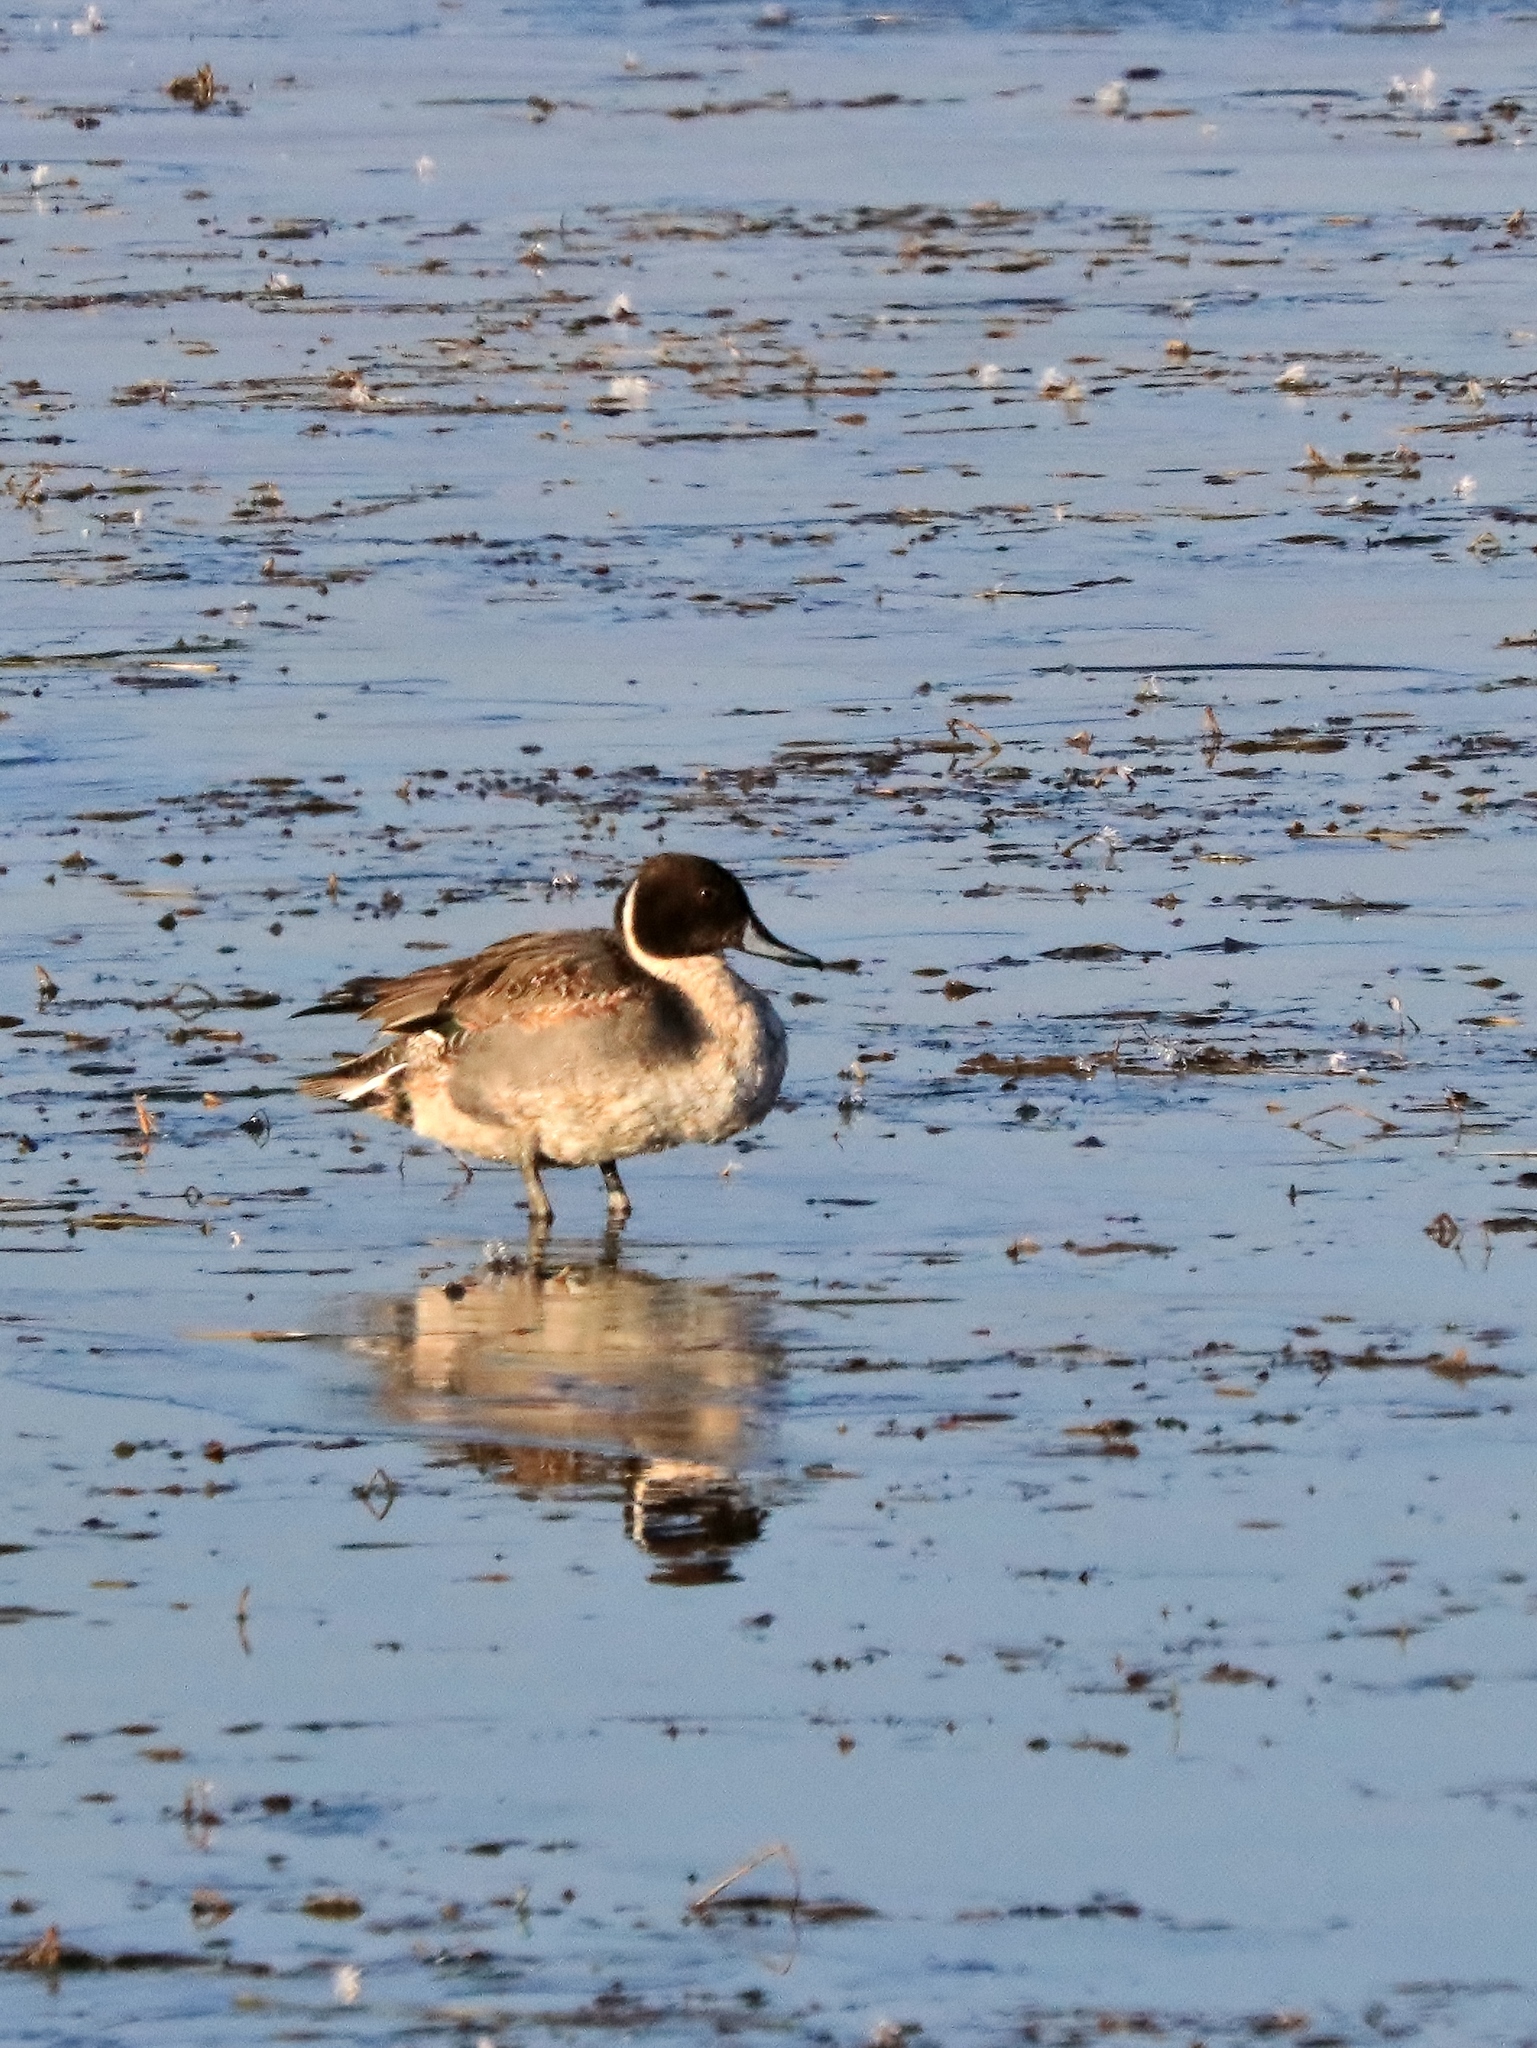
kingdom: Animalia
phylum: Chordata
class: Aves
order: Anseriformes
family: Anatidae
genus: Anas
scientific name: Anas acuta
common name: Northern pintail
